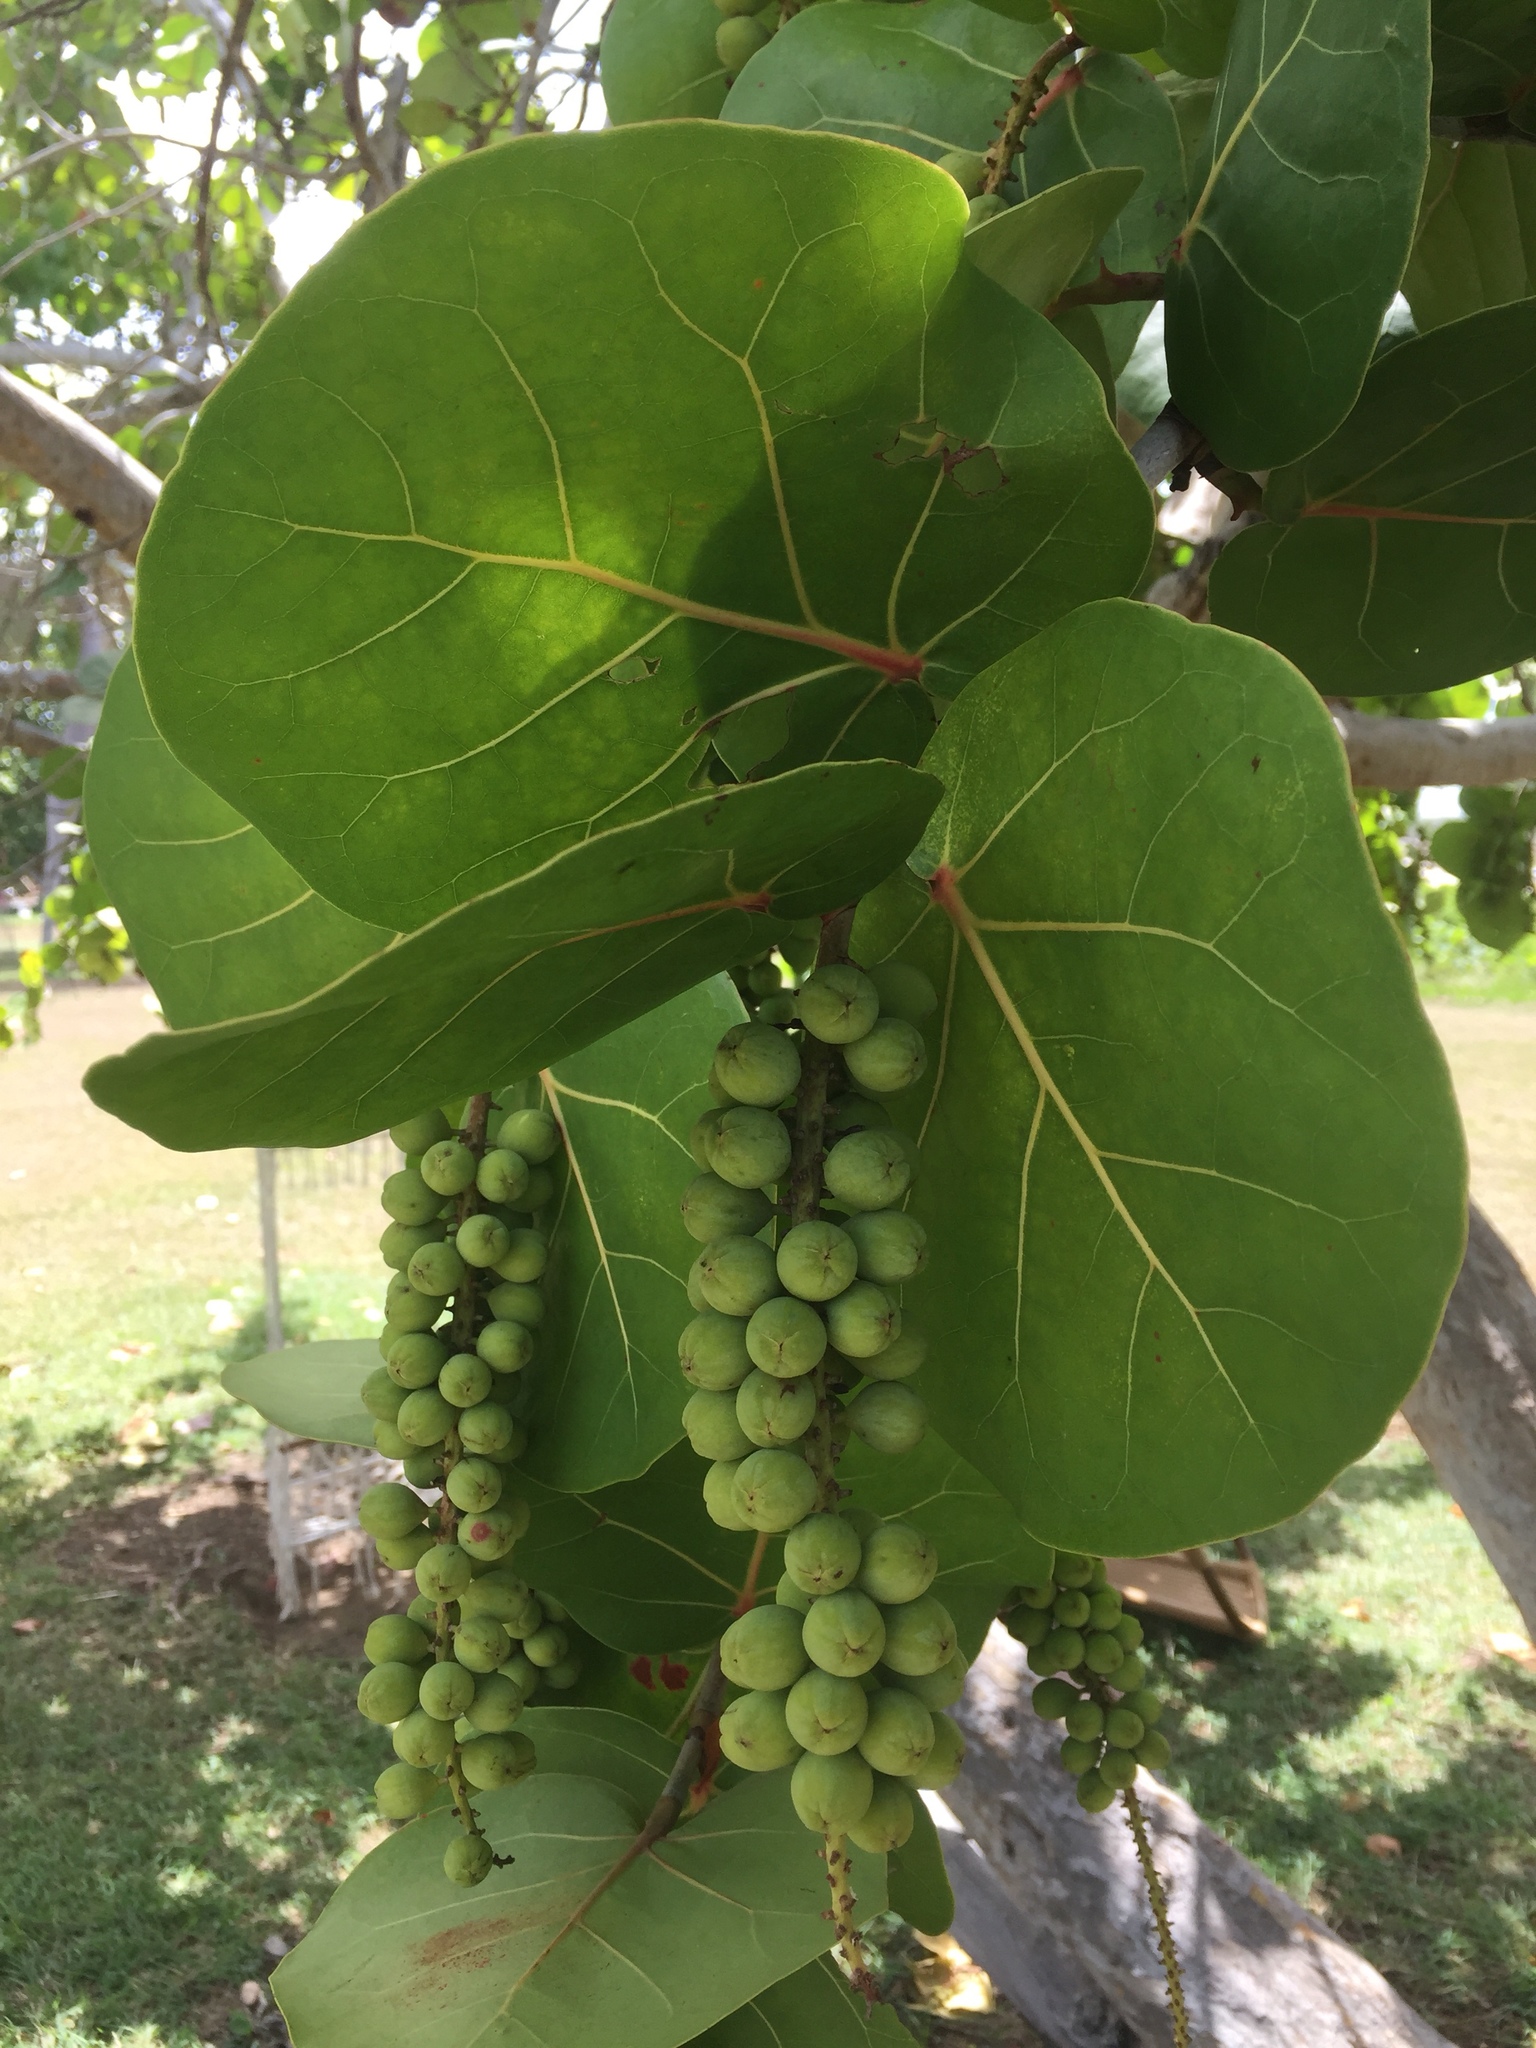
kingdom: Plantae
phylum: Tracheophyta
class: Magnoliopsida
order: Caryophyllales
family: Polygonaceae
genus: Coccoloba
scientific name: Coccoloba uvifera
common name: Seagrape
